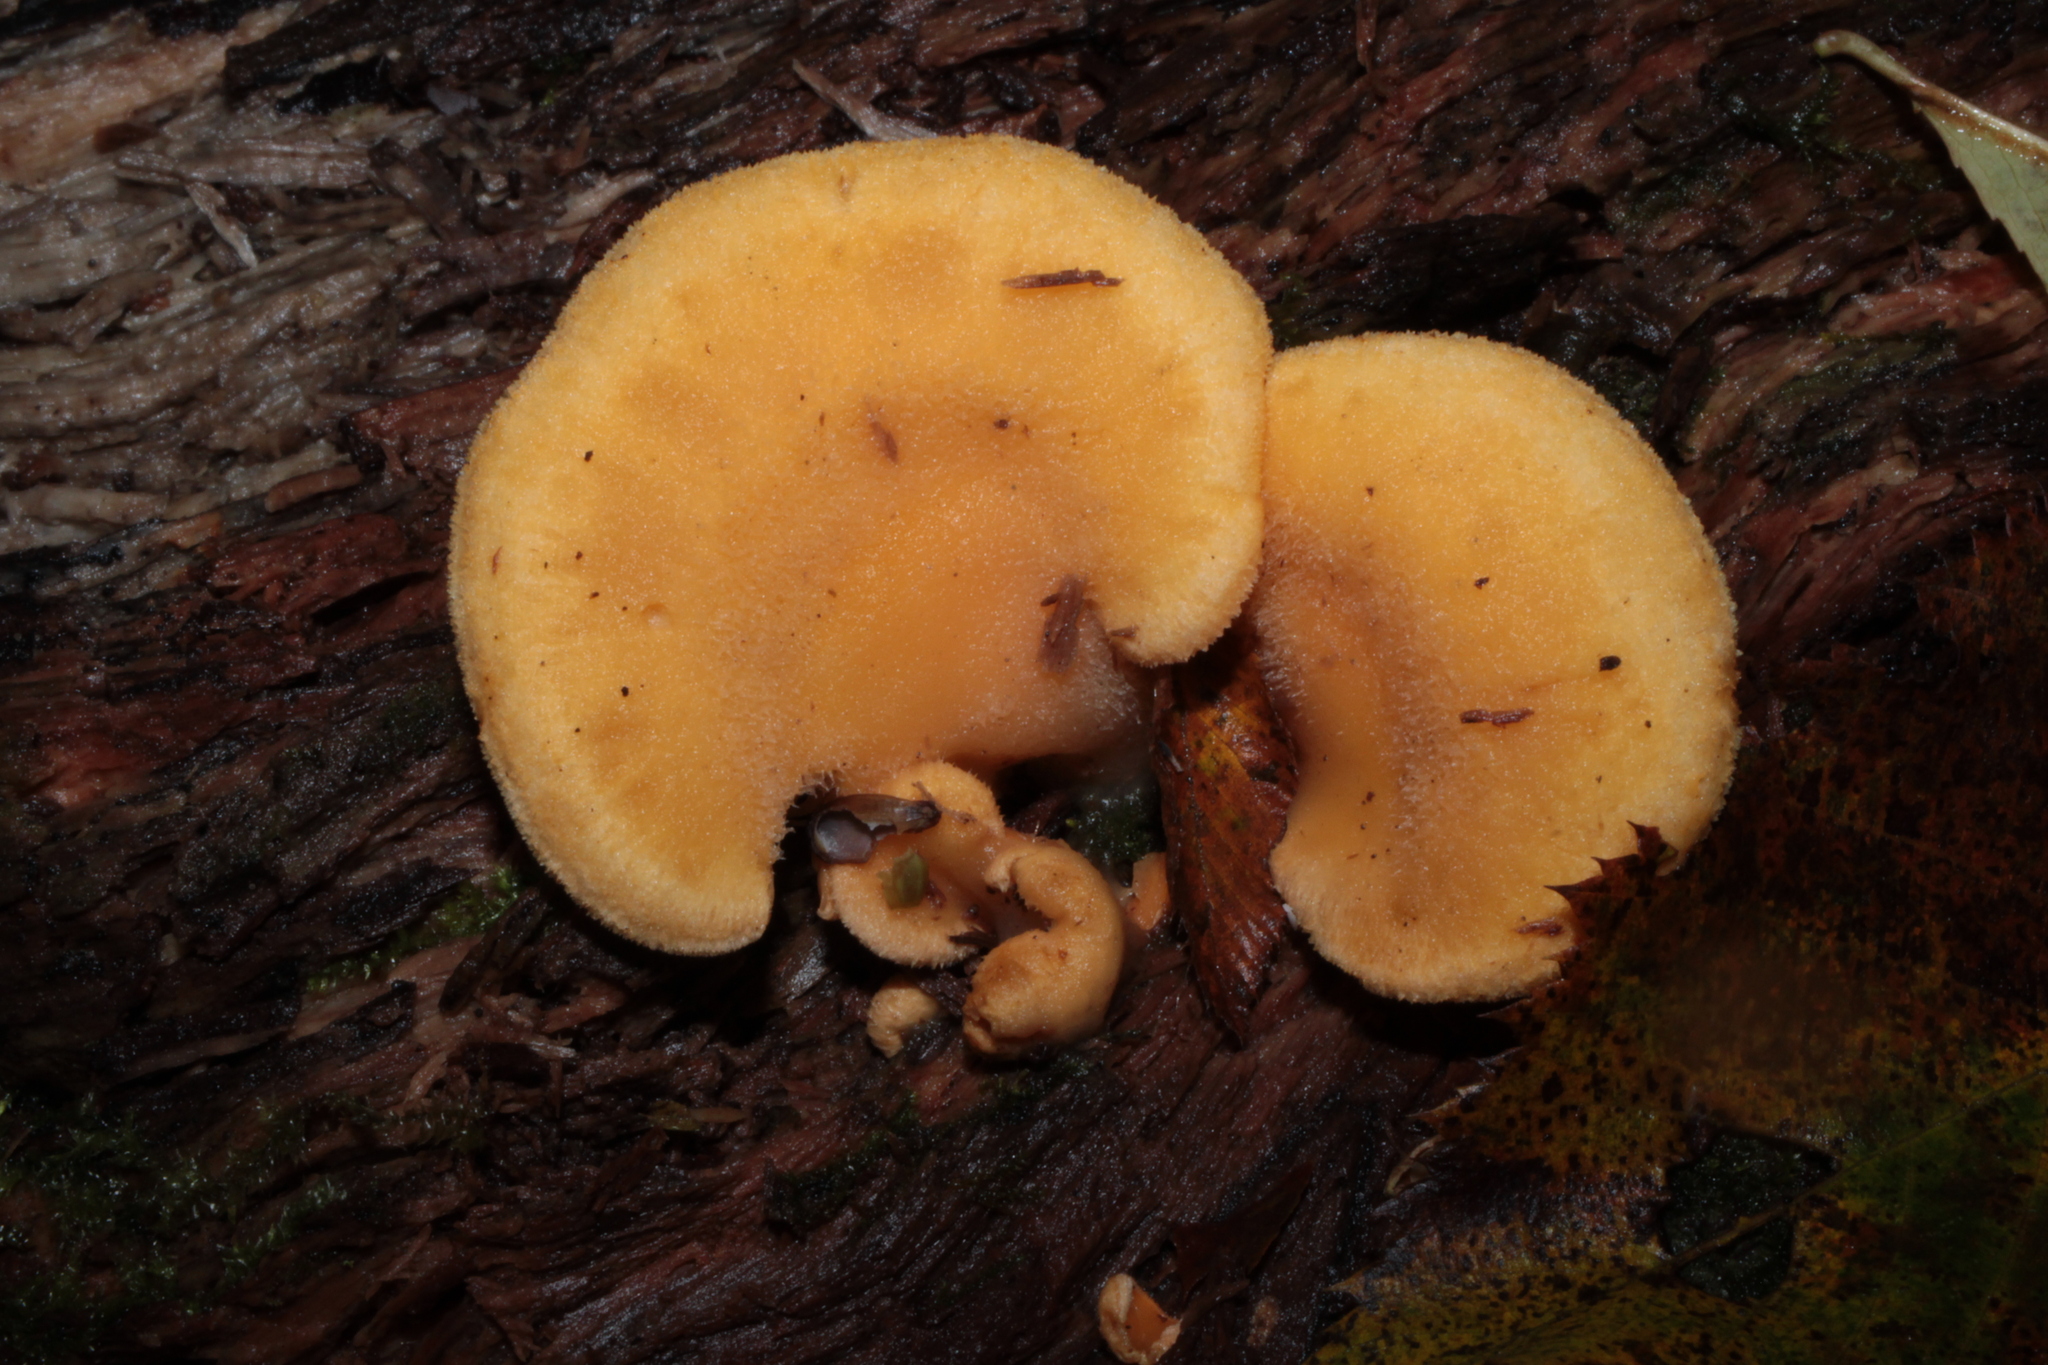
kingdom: Fungi
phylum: Basidiomycota
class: Agaricomycetes
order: Agaricales
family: Phyllotopsidaceae
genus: Phyllotopsis
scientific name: Phyllotopsis nidulans
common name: Orange mock oyster
